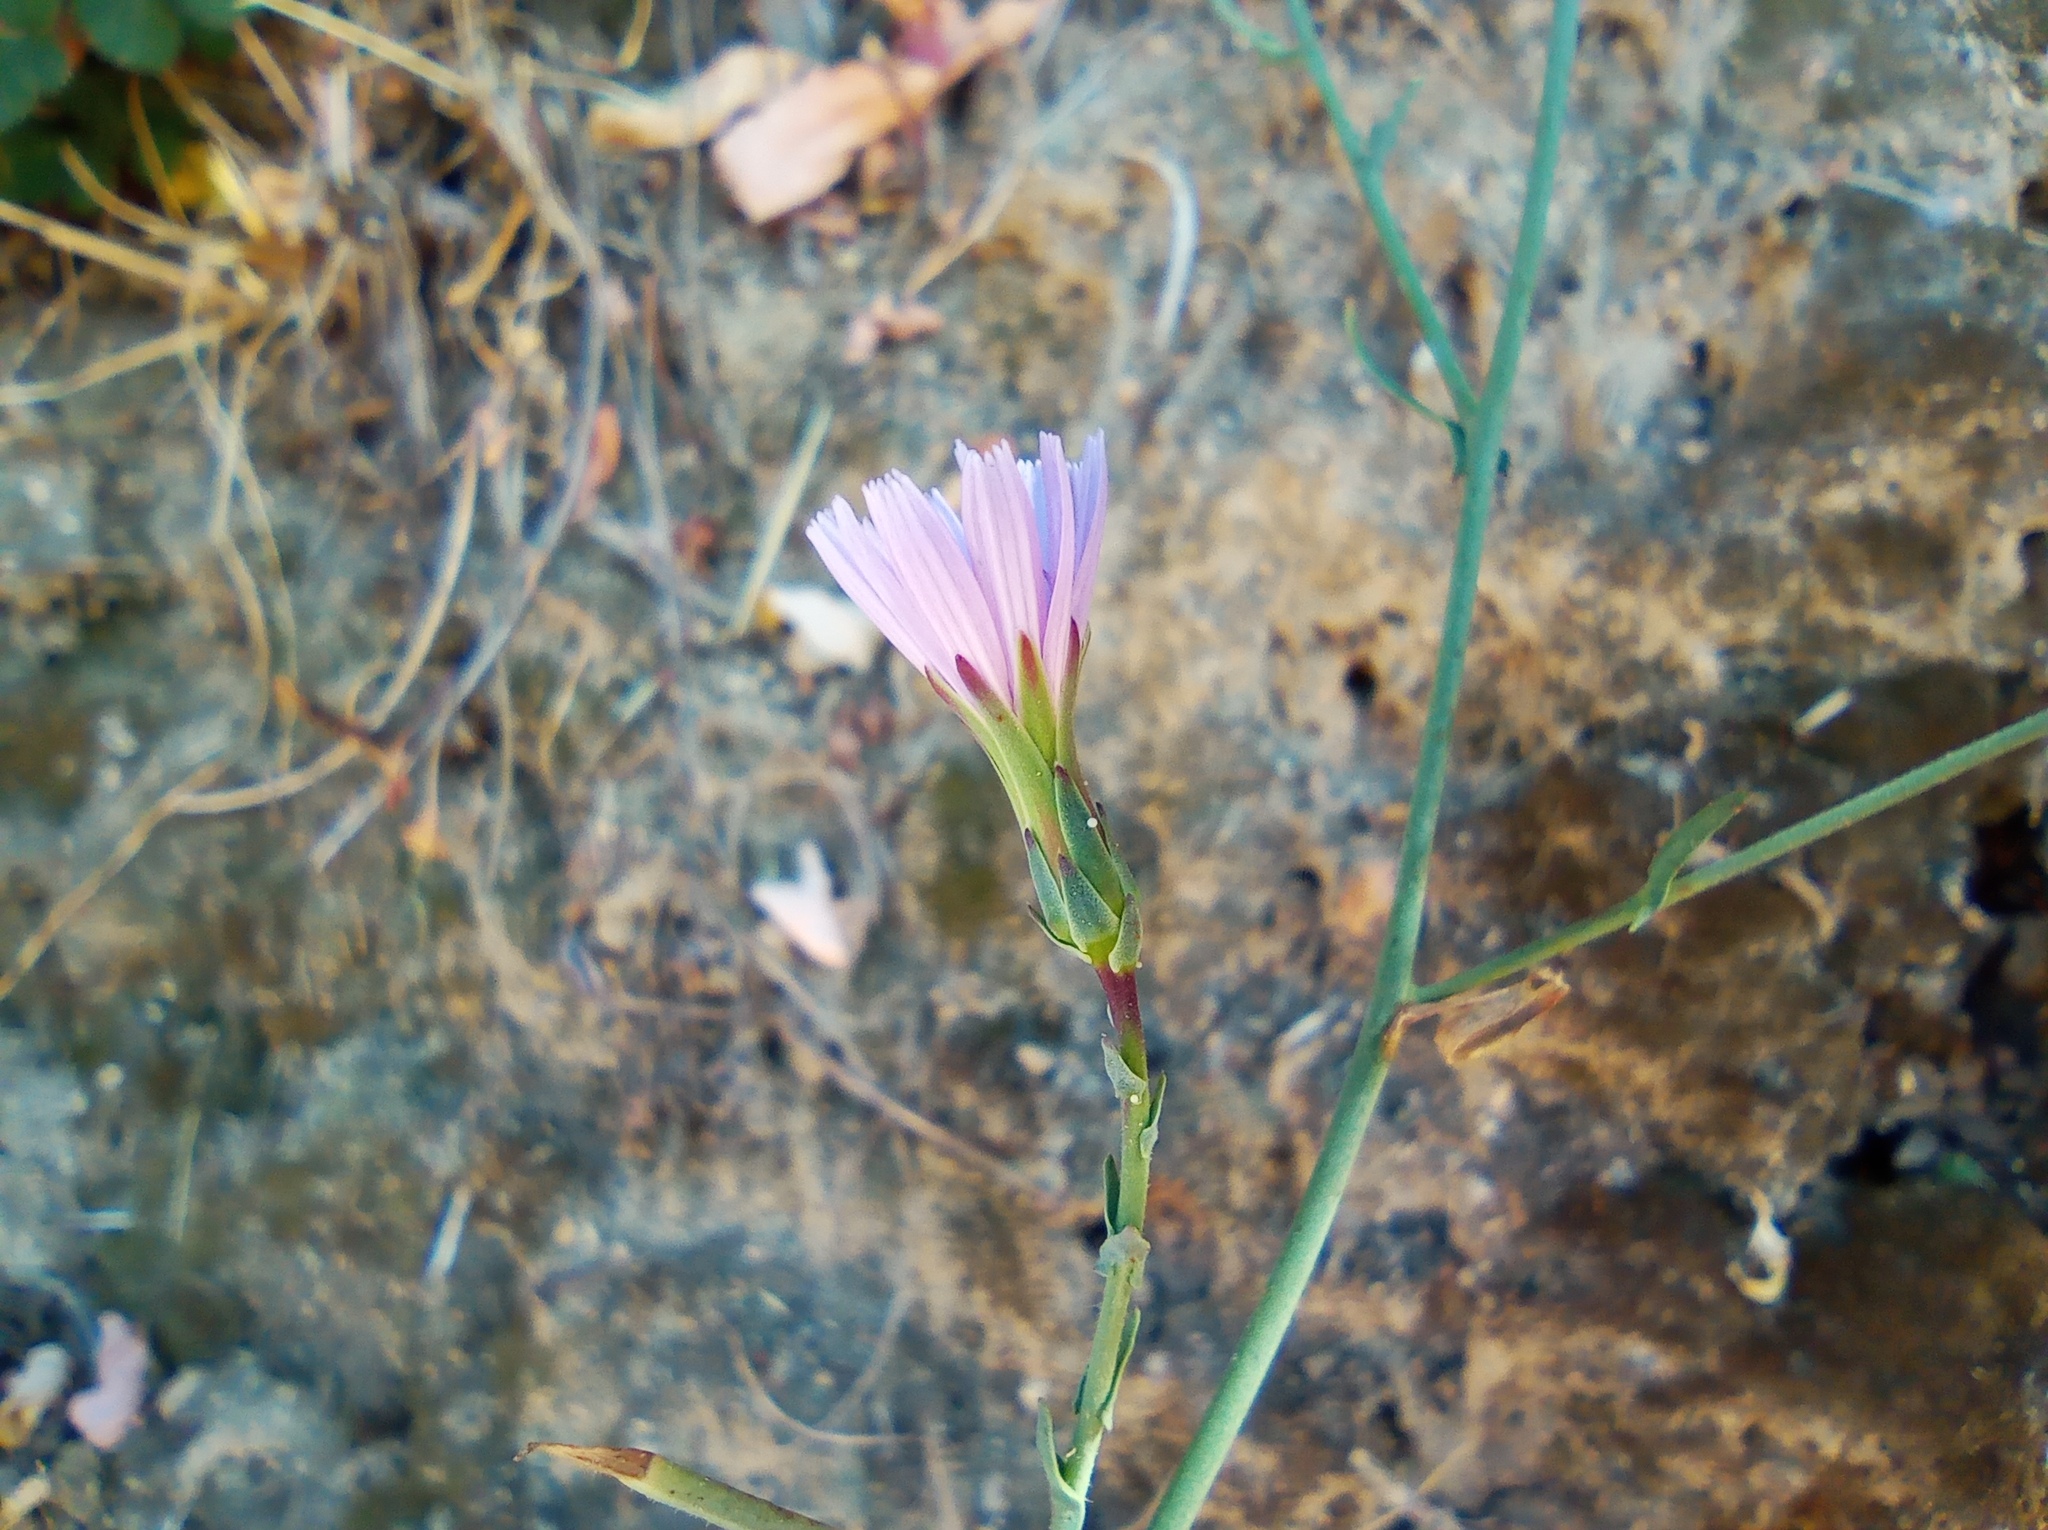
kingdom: Plantae
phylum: Tracheophyta
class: Magnoliopsida
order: Asterales
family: Asteraceae
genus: Lactuca
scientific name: Lactuca tenerrima
